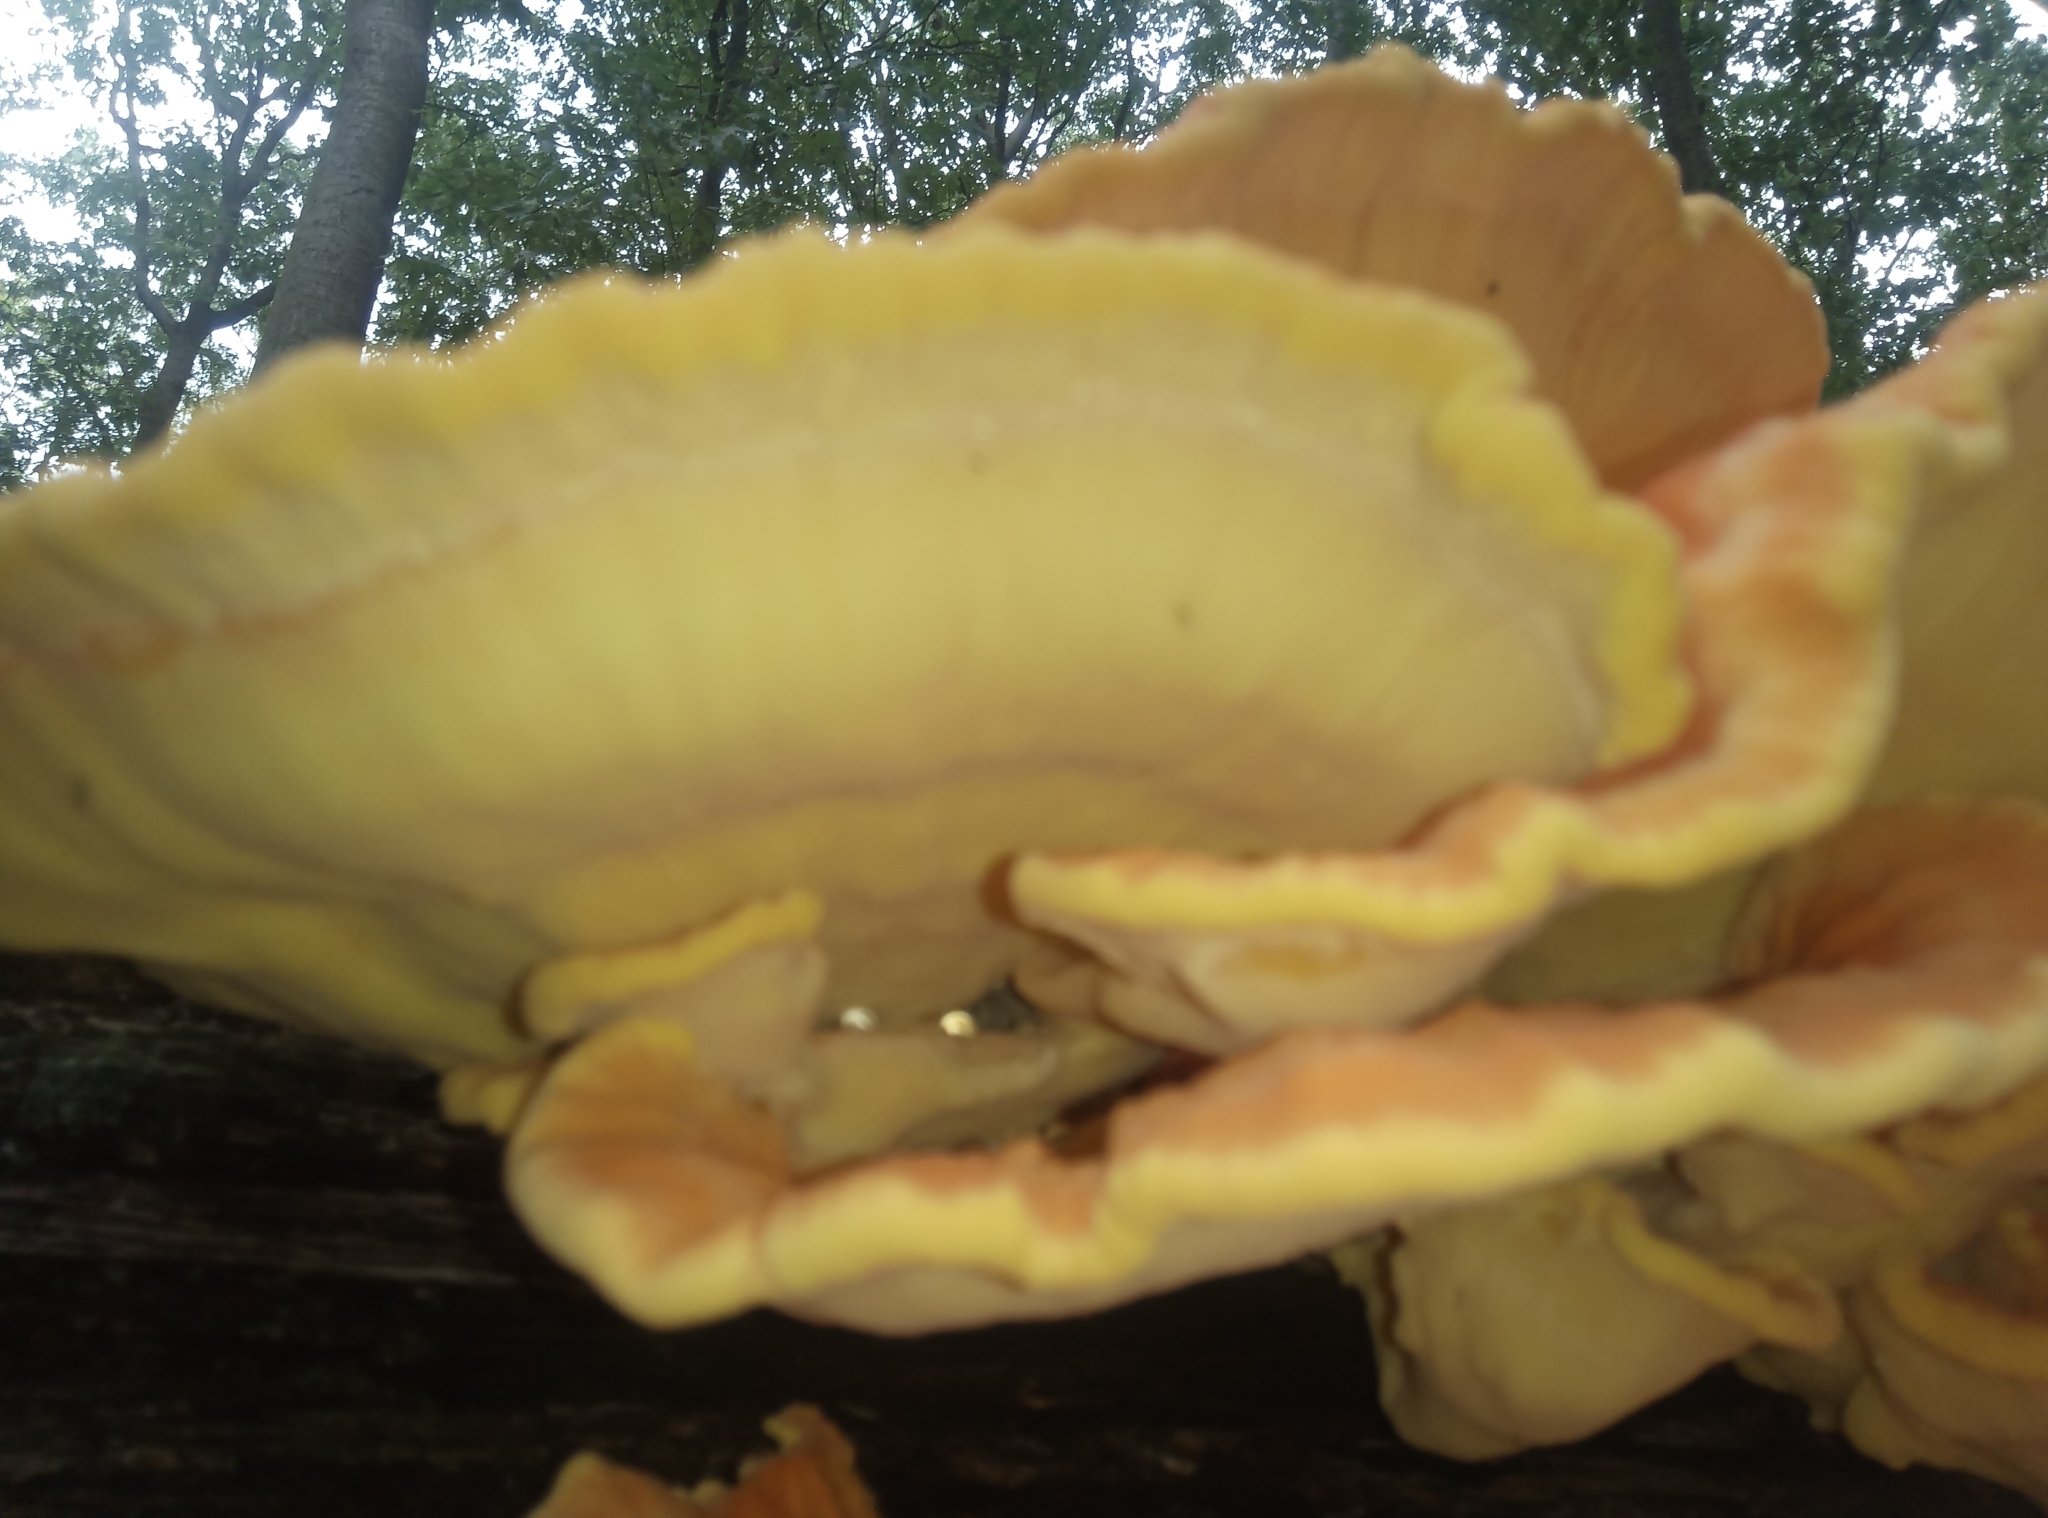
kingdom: Fungi
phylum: Basidiomycota
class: Agaricomycetes
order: Polyporales
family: Laetiporaceae
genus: Laetiporus
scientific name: Laetiporus sulphureus
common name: Chicken of the woods
